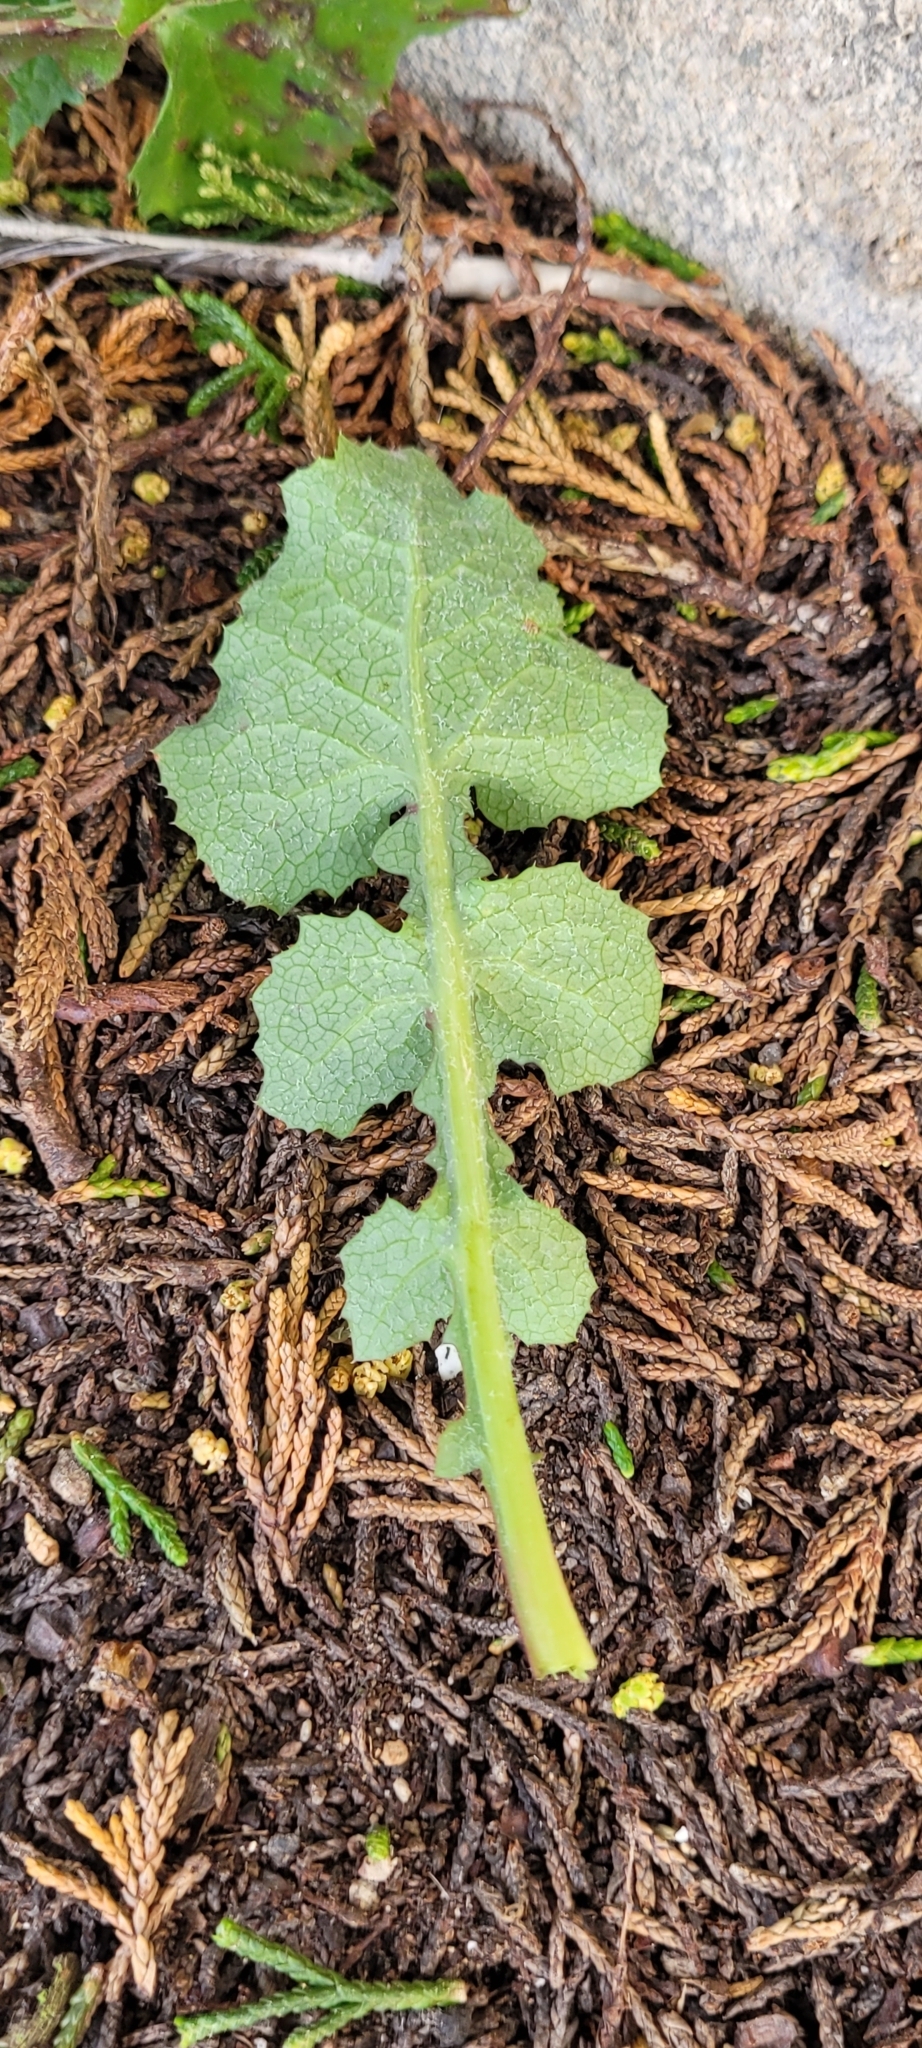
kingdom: Plantae
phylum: Tracheophyta
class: Magnoliopsida
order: Asterales
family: Asteraceae
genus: Sonchus
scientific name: Sonchus oleraceus
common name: Common sowthistle
